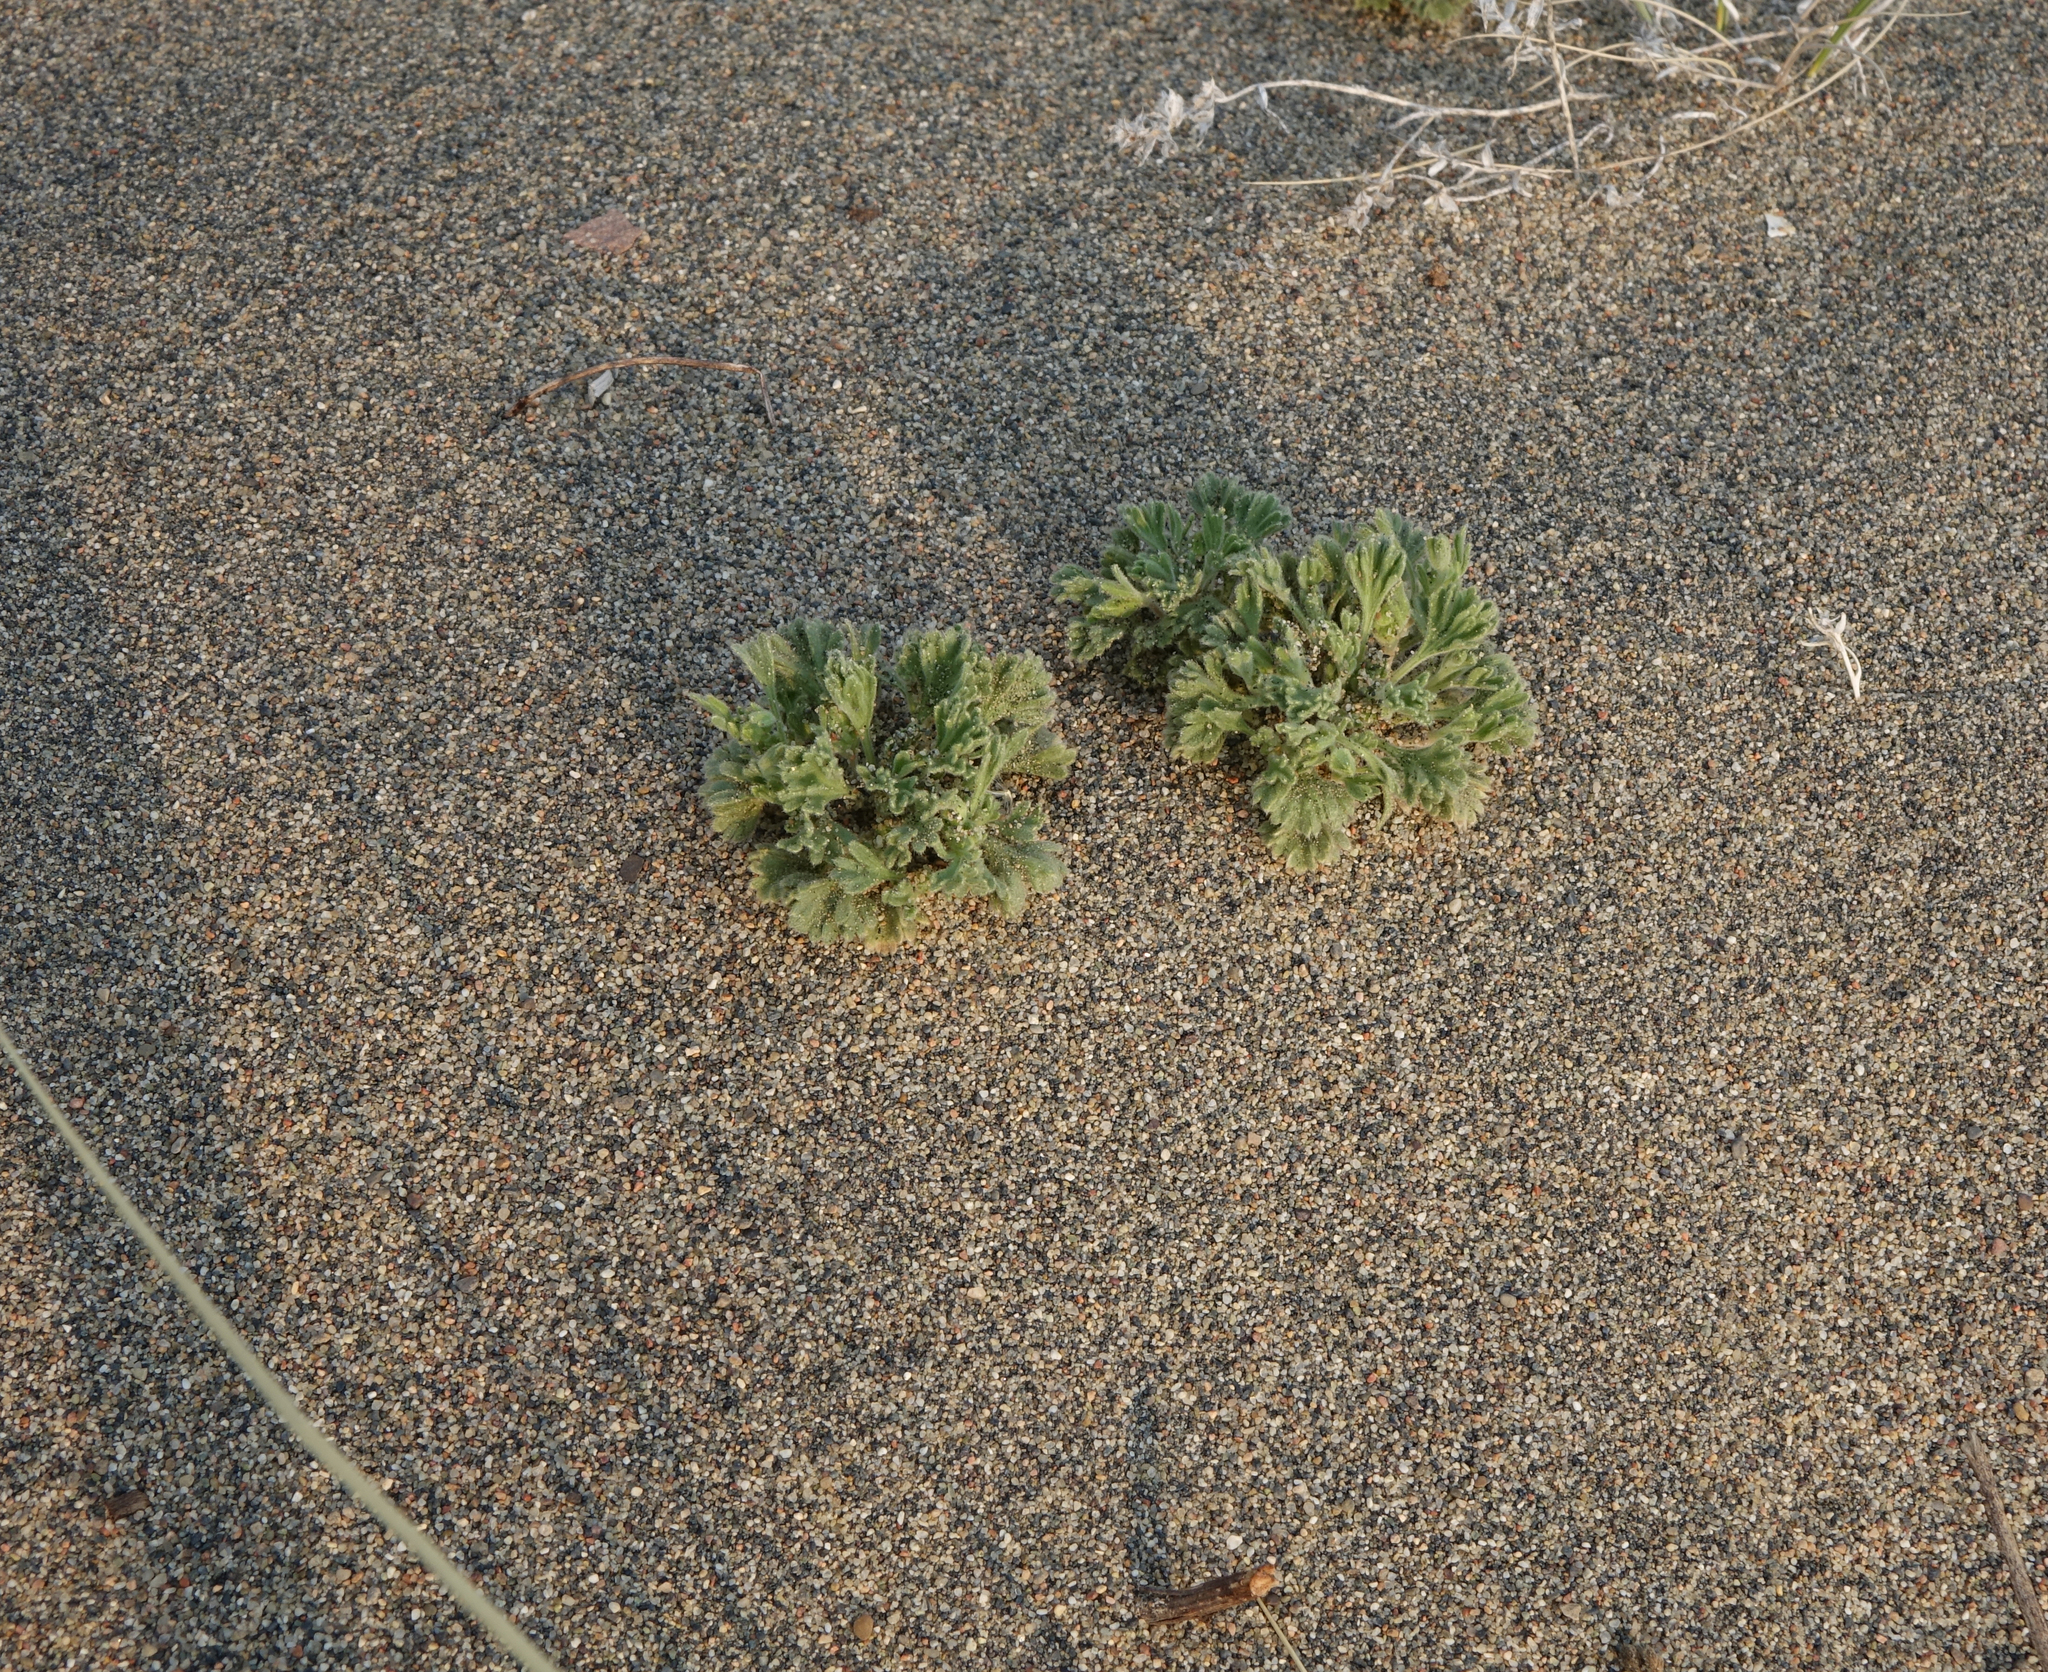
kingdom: Plantae
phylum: Tracheophyta
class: Magnoliopsida
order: Rosales
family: Rosaceae
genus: Chamaerhodos
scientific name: Chamaerhodos sabulosa
